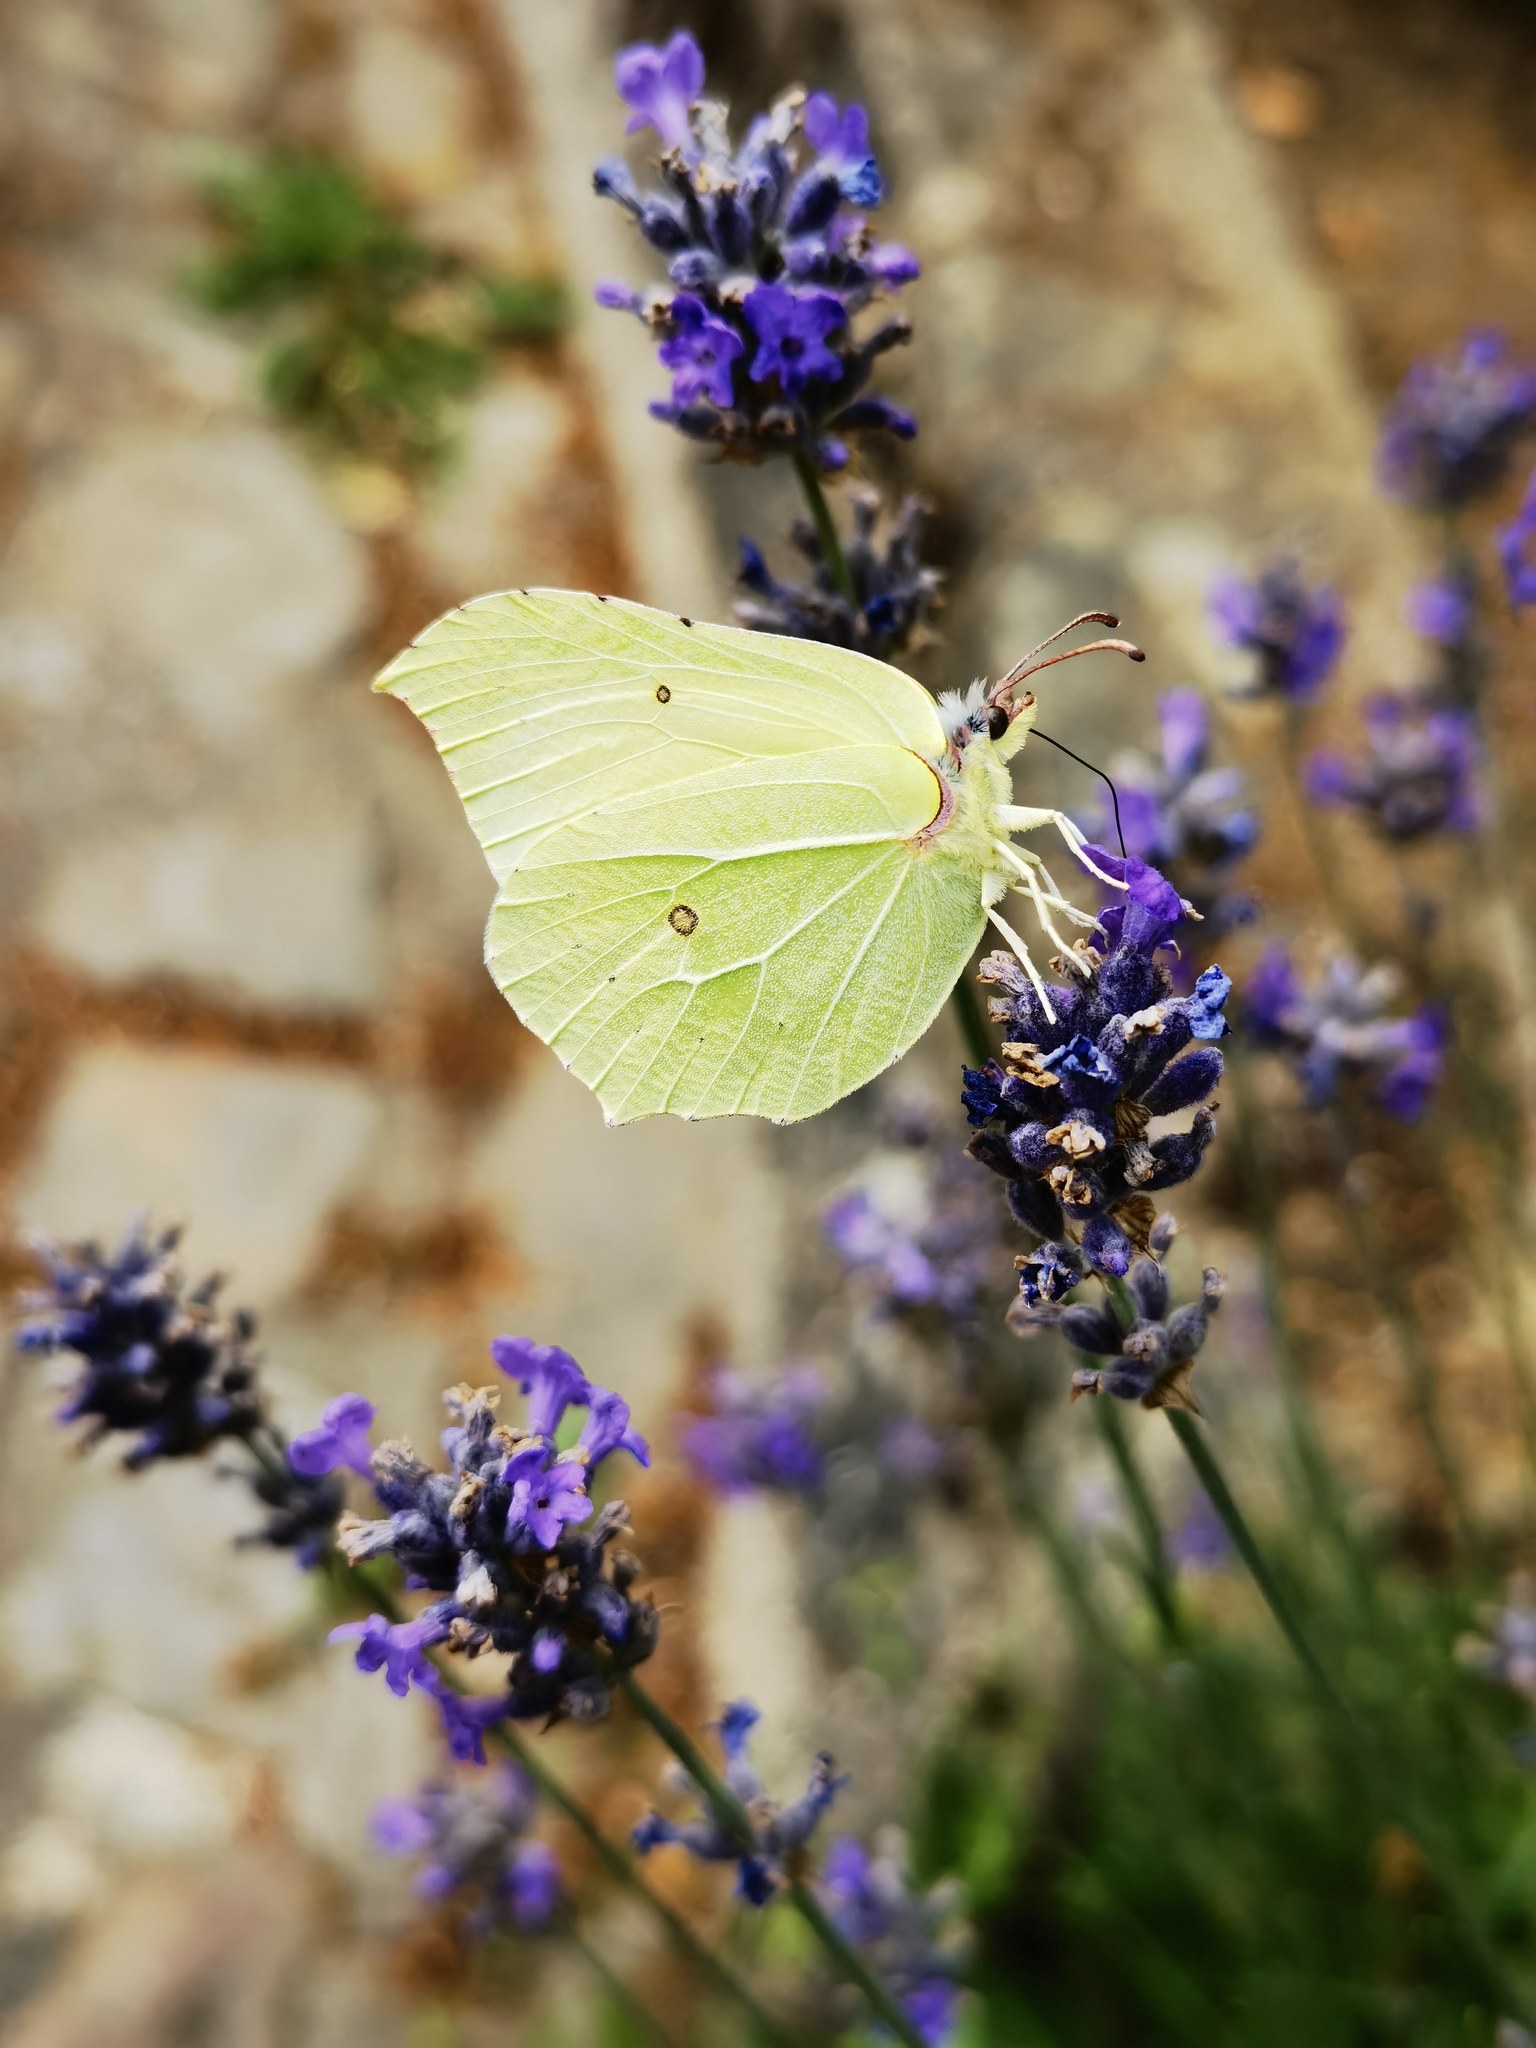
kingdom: Animalia
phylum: Arthropoda
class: Insecta
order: Lepidoptera
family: Pieridae
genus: Gonepteryx
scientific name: Gonepteryx rhamni
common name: Brimstone
